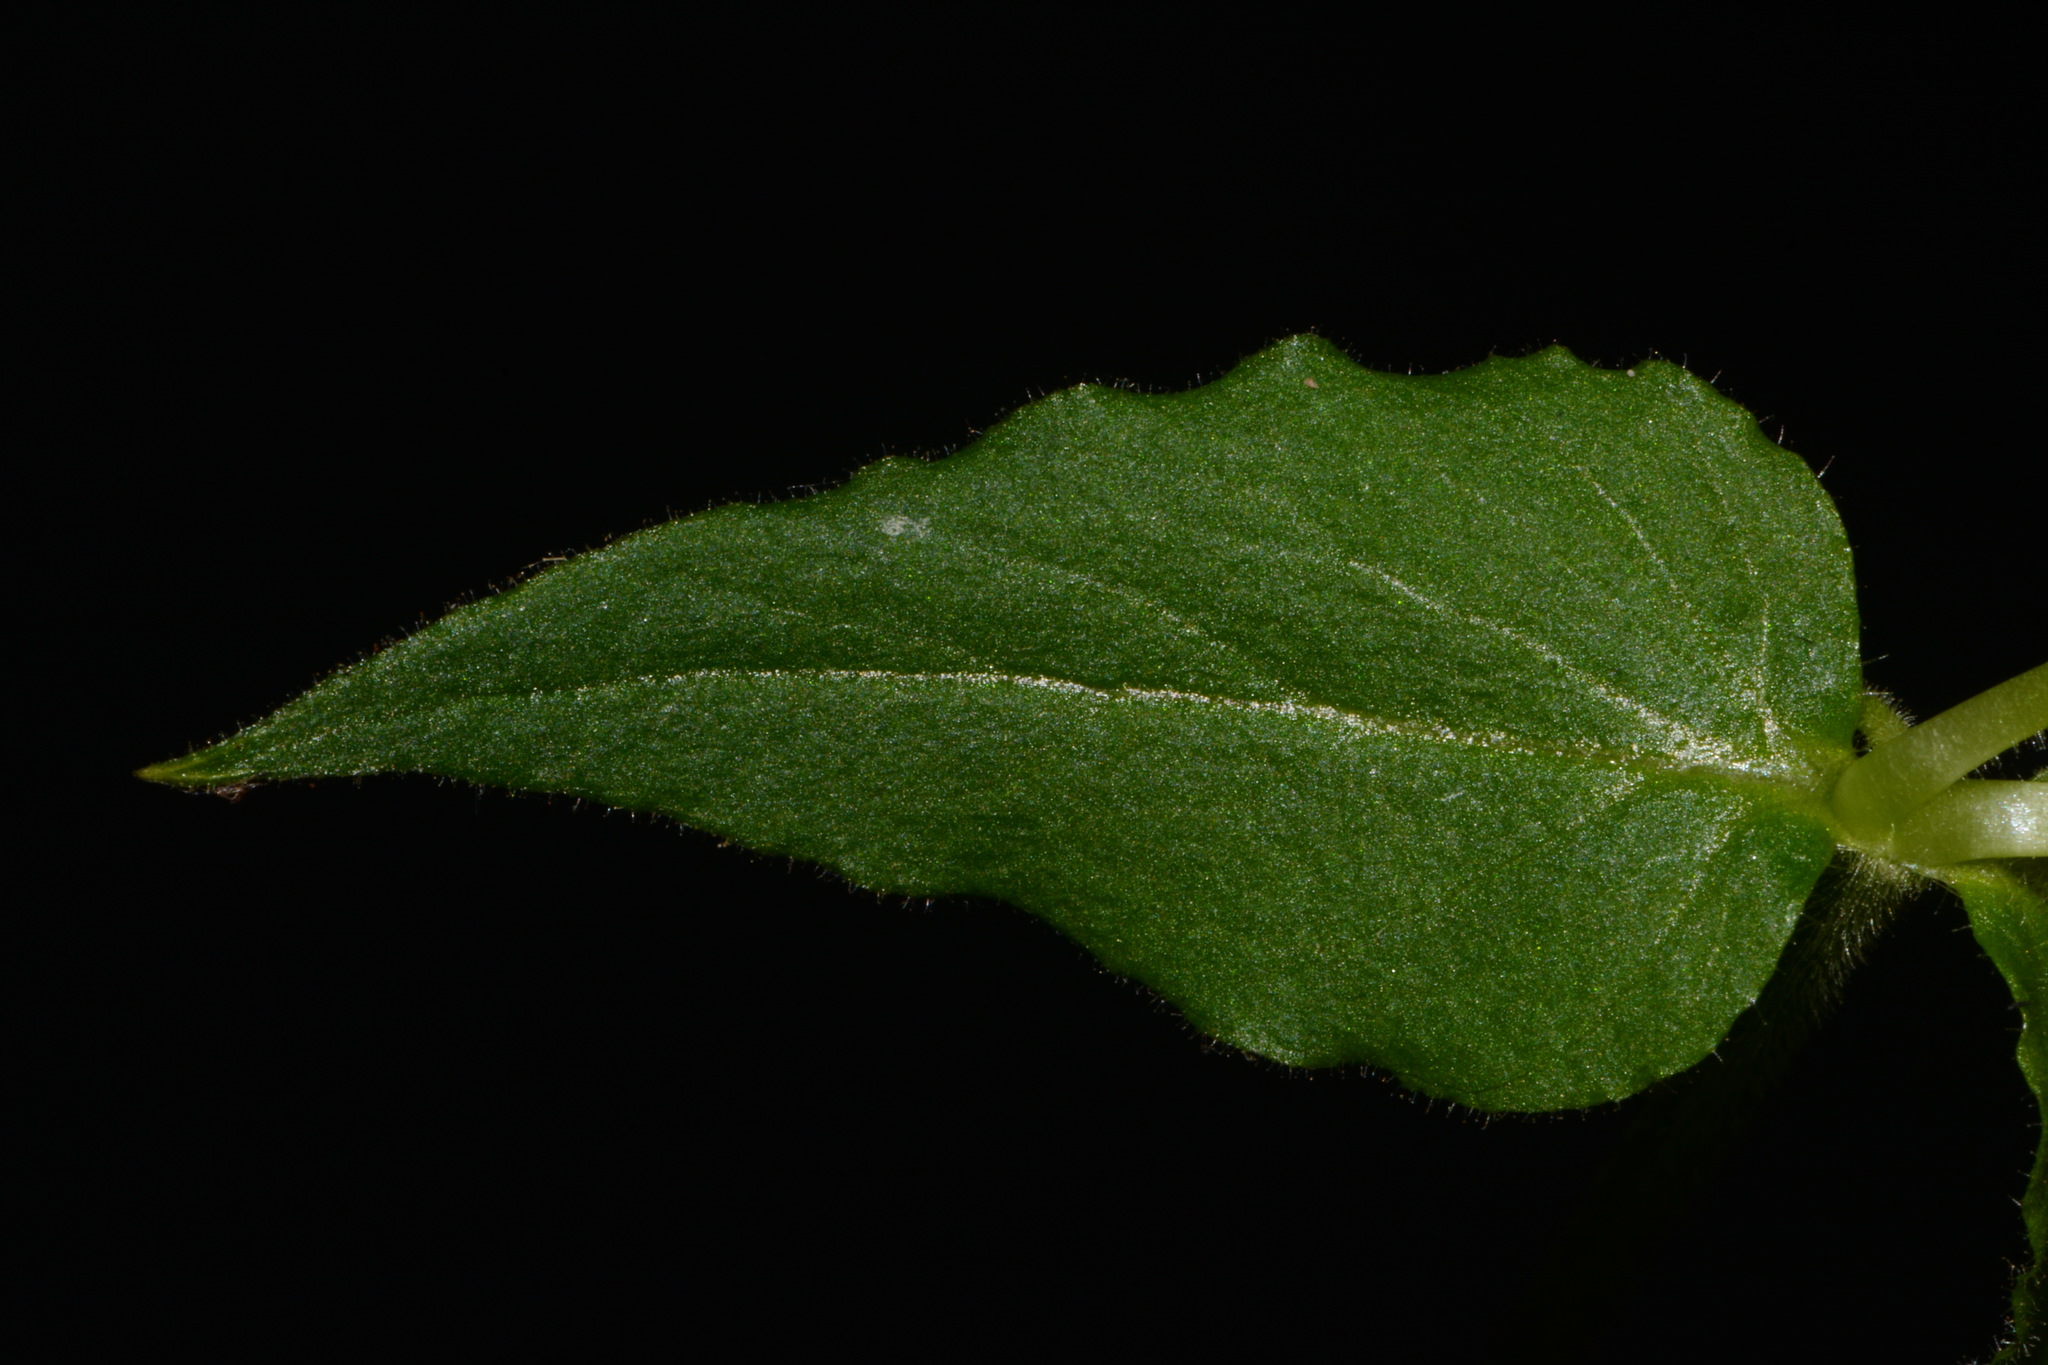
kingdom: Plantae
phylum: Tracheophyta
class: Magnoliopsida
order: Caryophyllales
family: Caryophyllaceae
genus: Stellaria
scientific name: Stellaria aquatica
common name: Water chickweed
